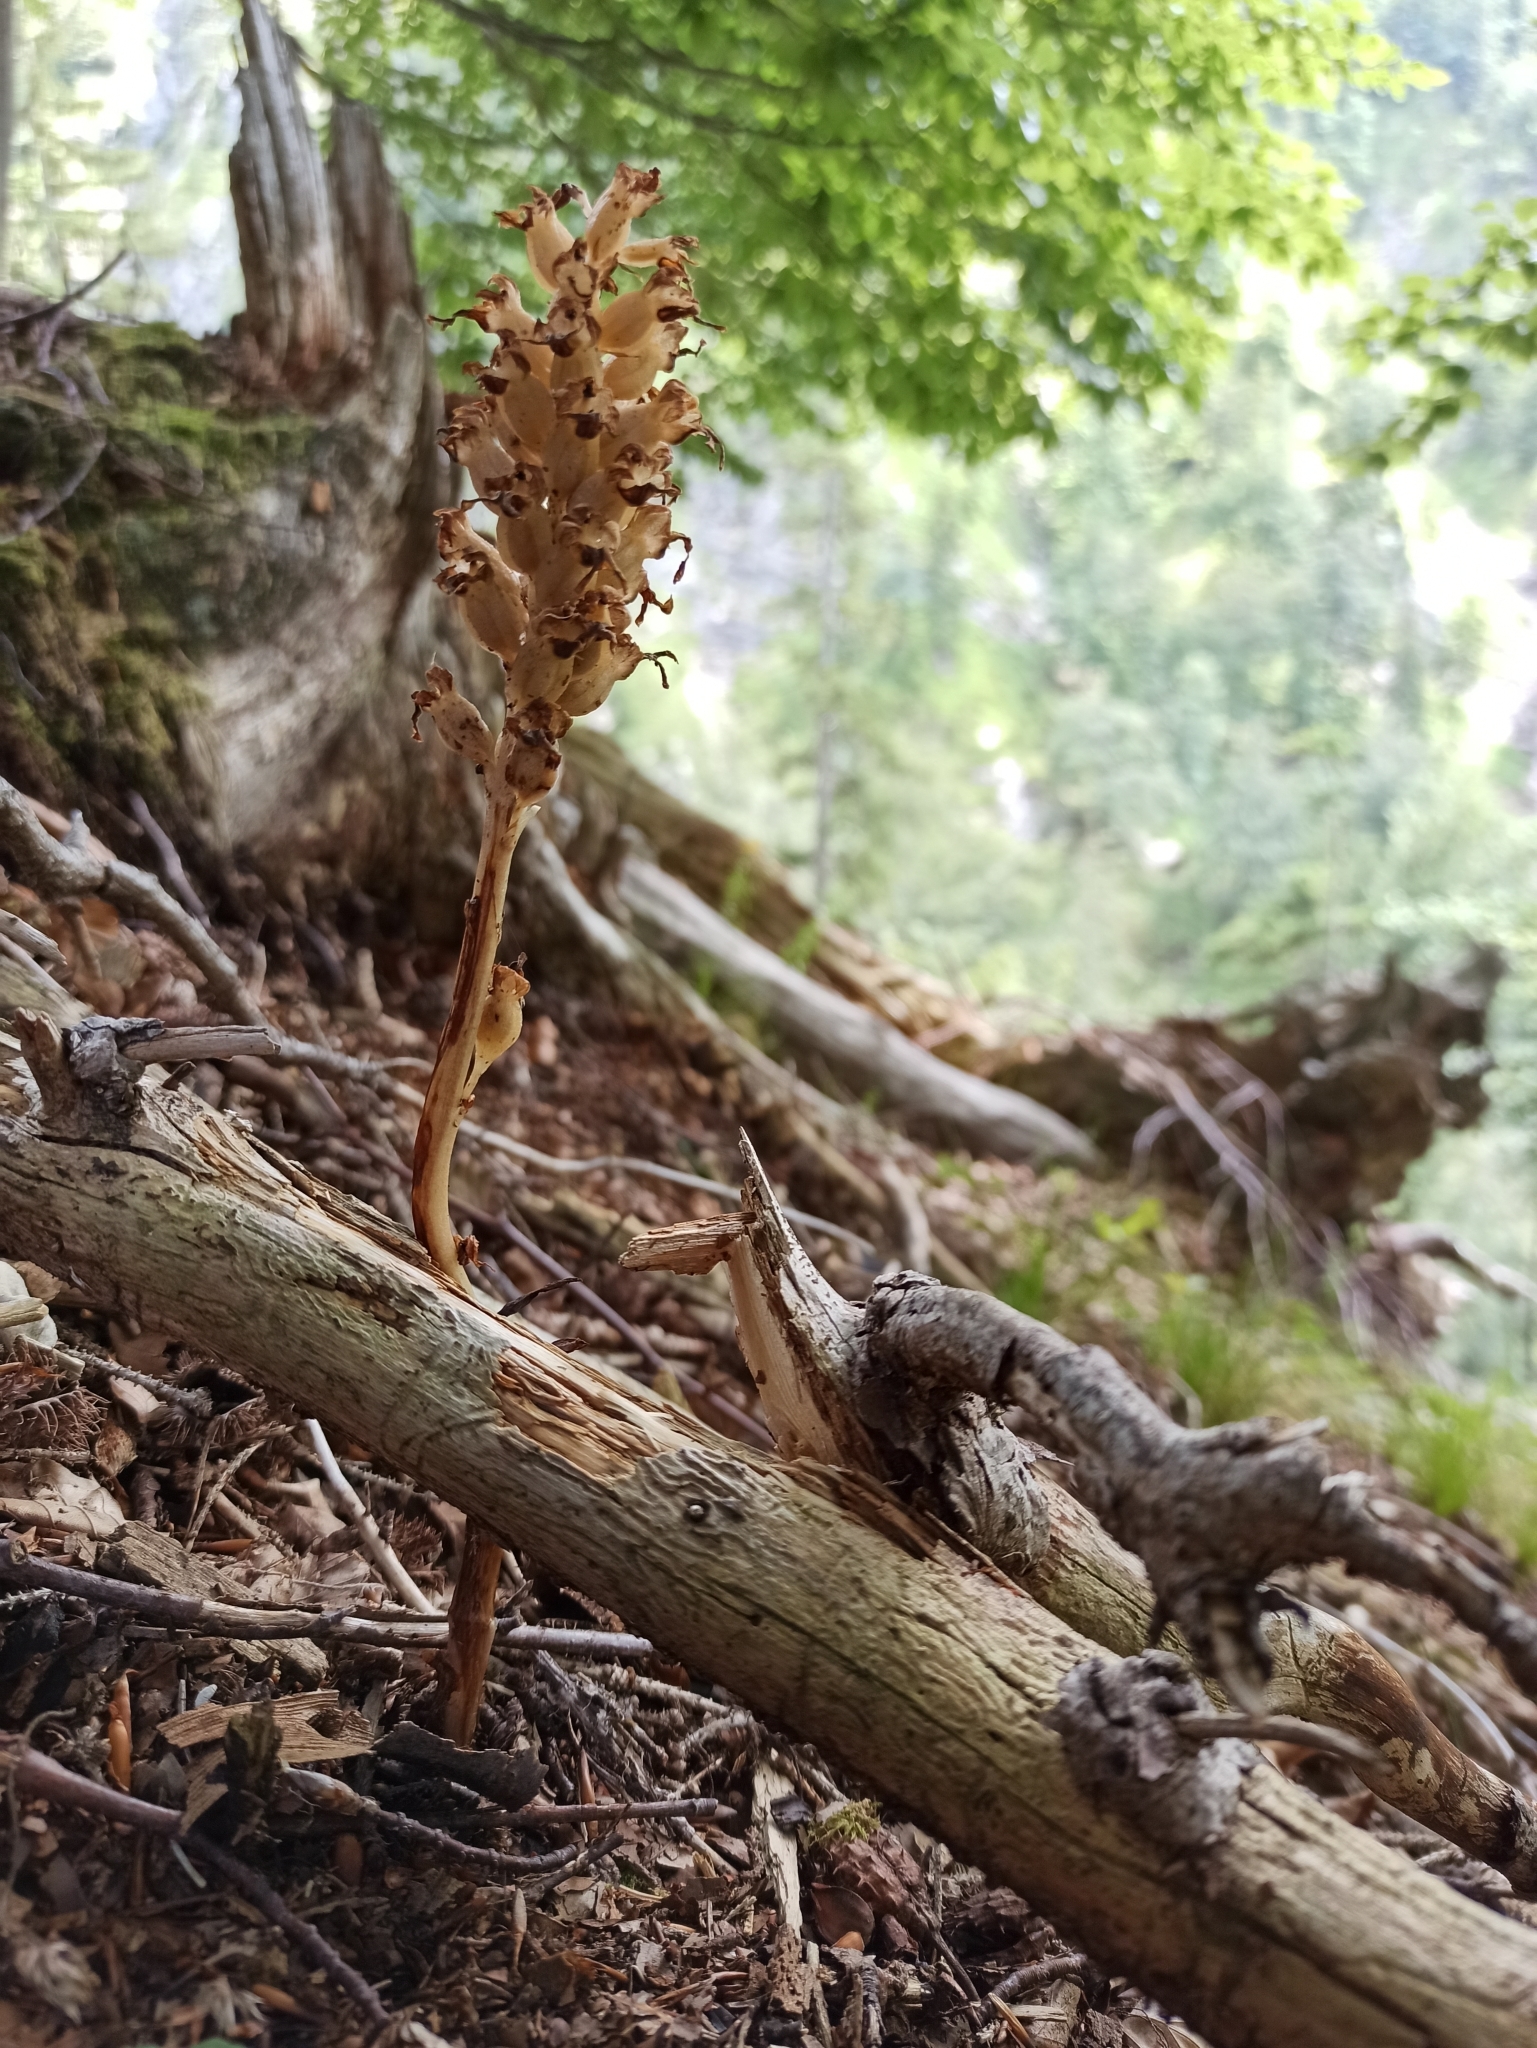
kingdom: Plantae
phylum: Tracheophyta
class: Liliopsida
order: Asparagales
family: Orchidaceae
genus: Neottia
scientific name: Neottia nidus-avis
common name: Bird's-nest orchid
